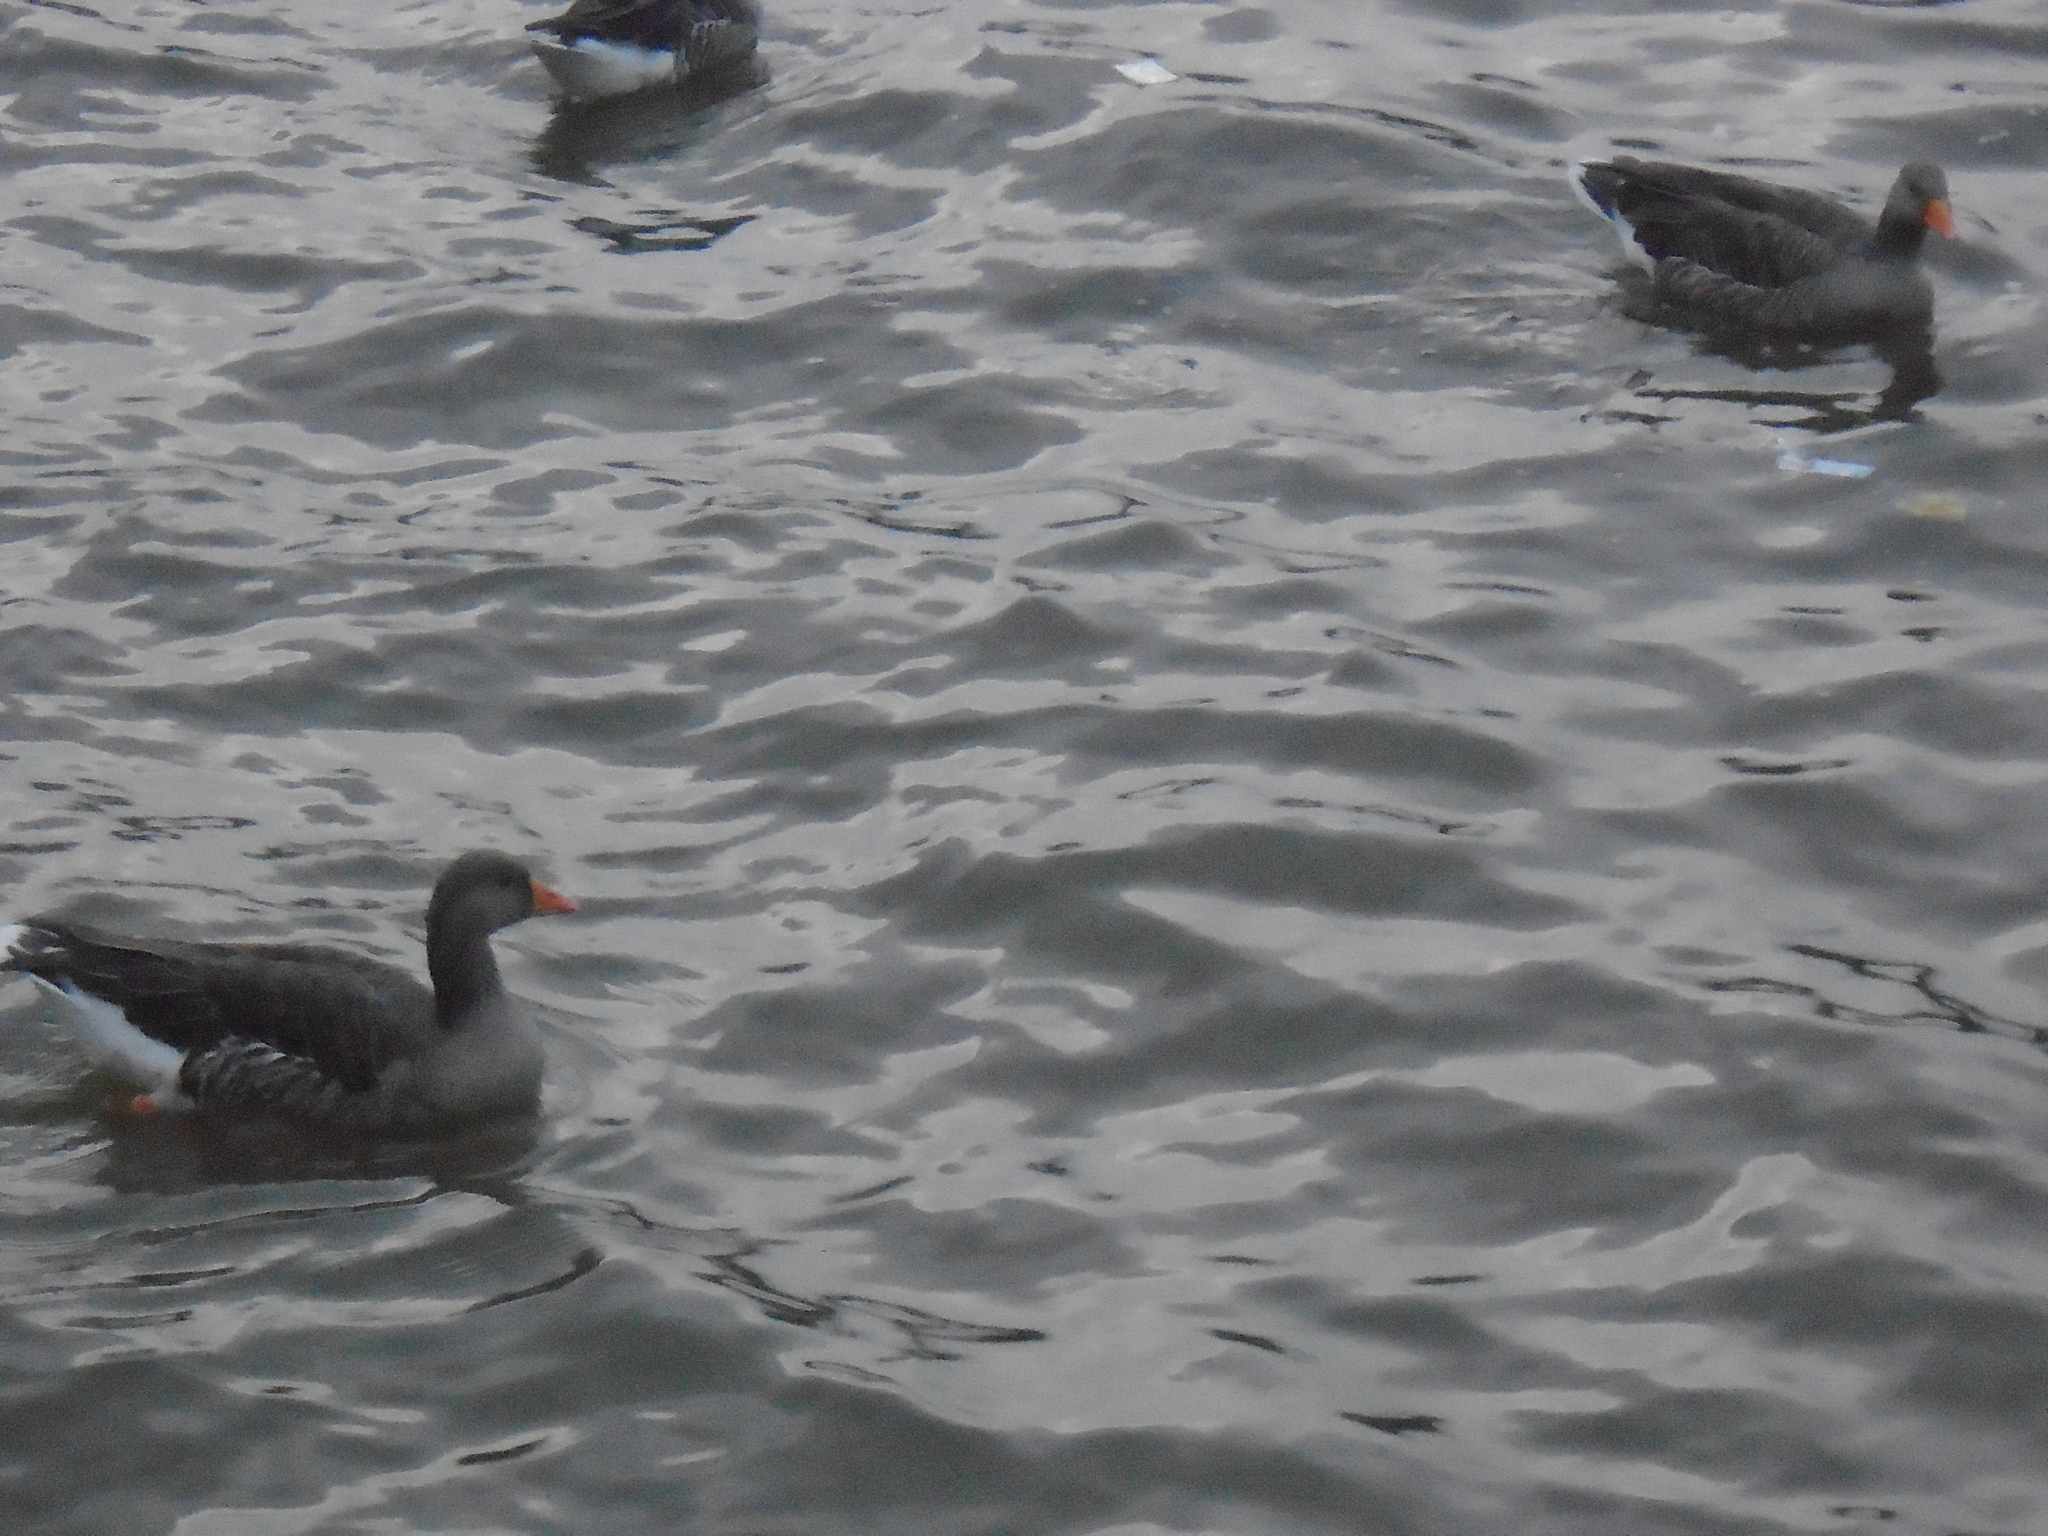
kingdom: Animalia
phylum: Chordata
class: Aves
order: Anseriformes
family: Anatidae
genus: Anser
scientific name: Anser anser
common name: Greylag goose
